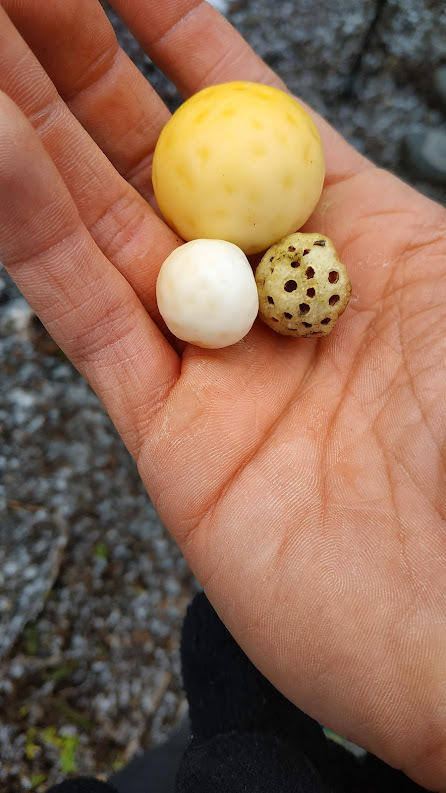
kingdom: Fungi
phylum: Ascomycota
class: Leotiomycetes
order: Cyttariales
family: Cyttariaceae
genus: Cyttaria
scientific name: Cyttaria darwinii
